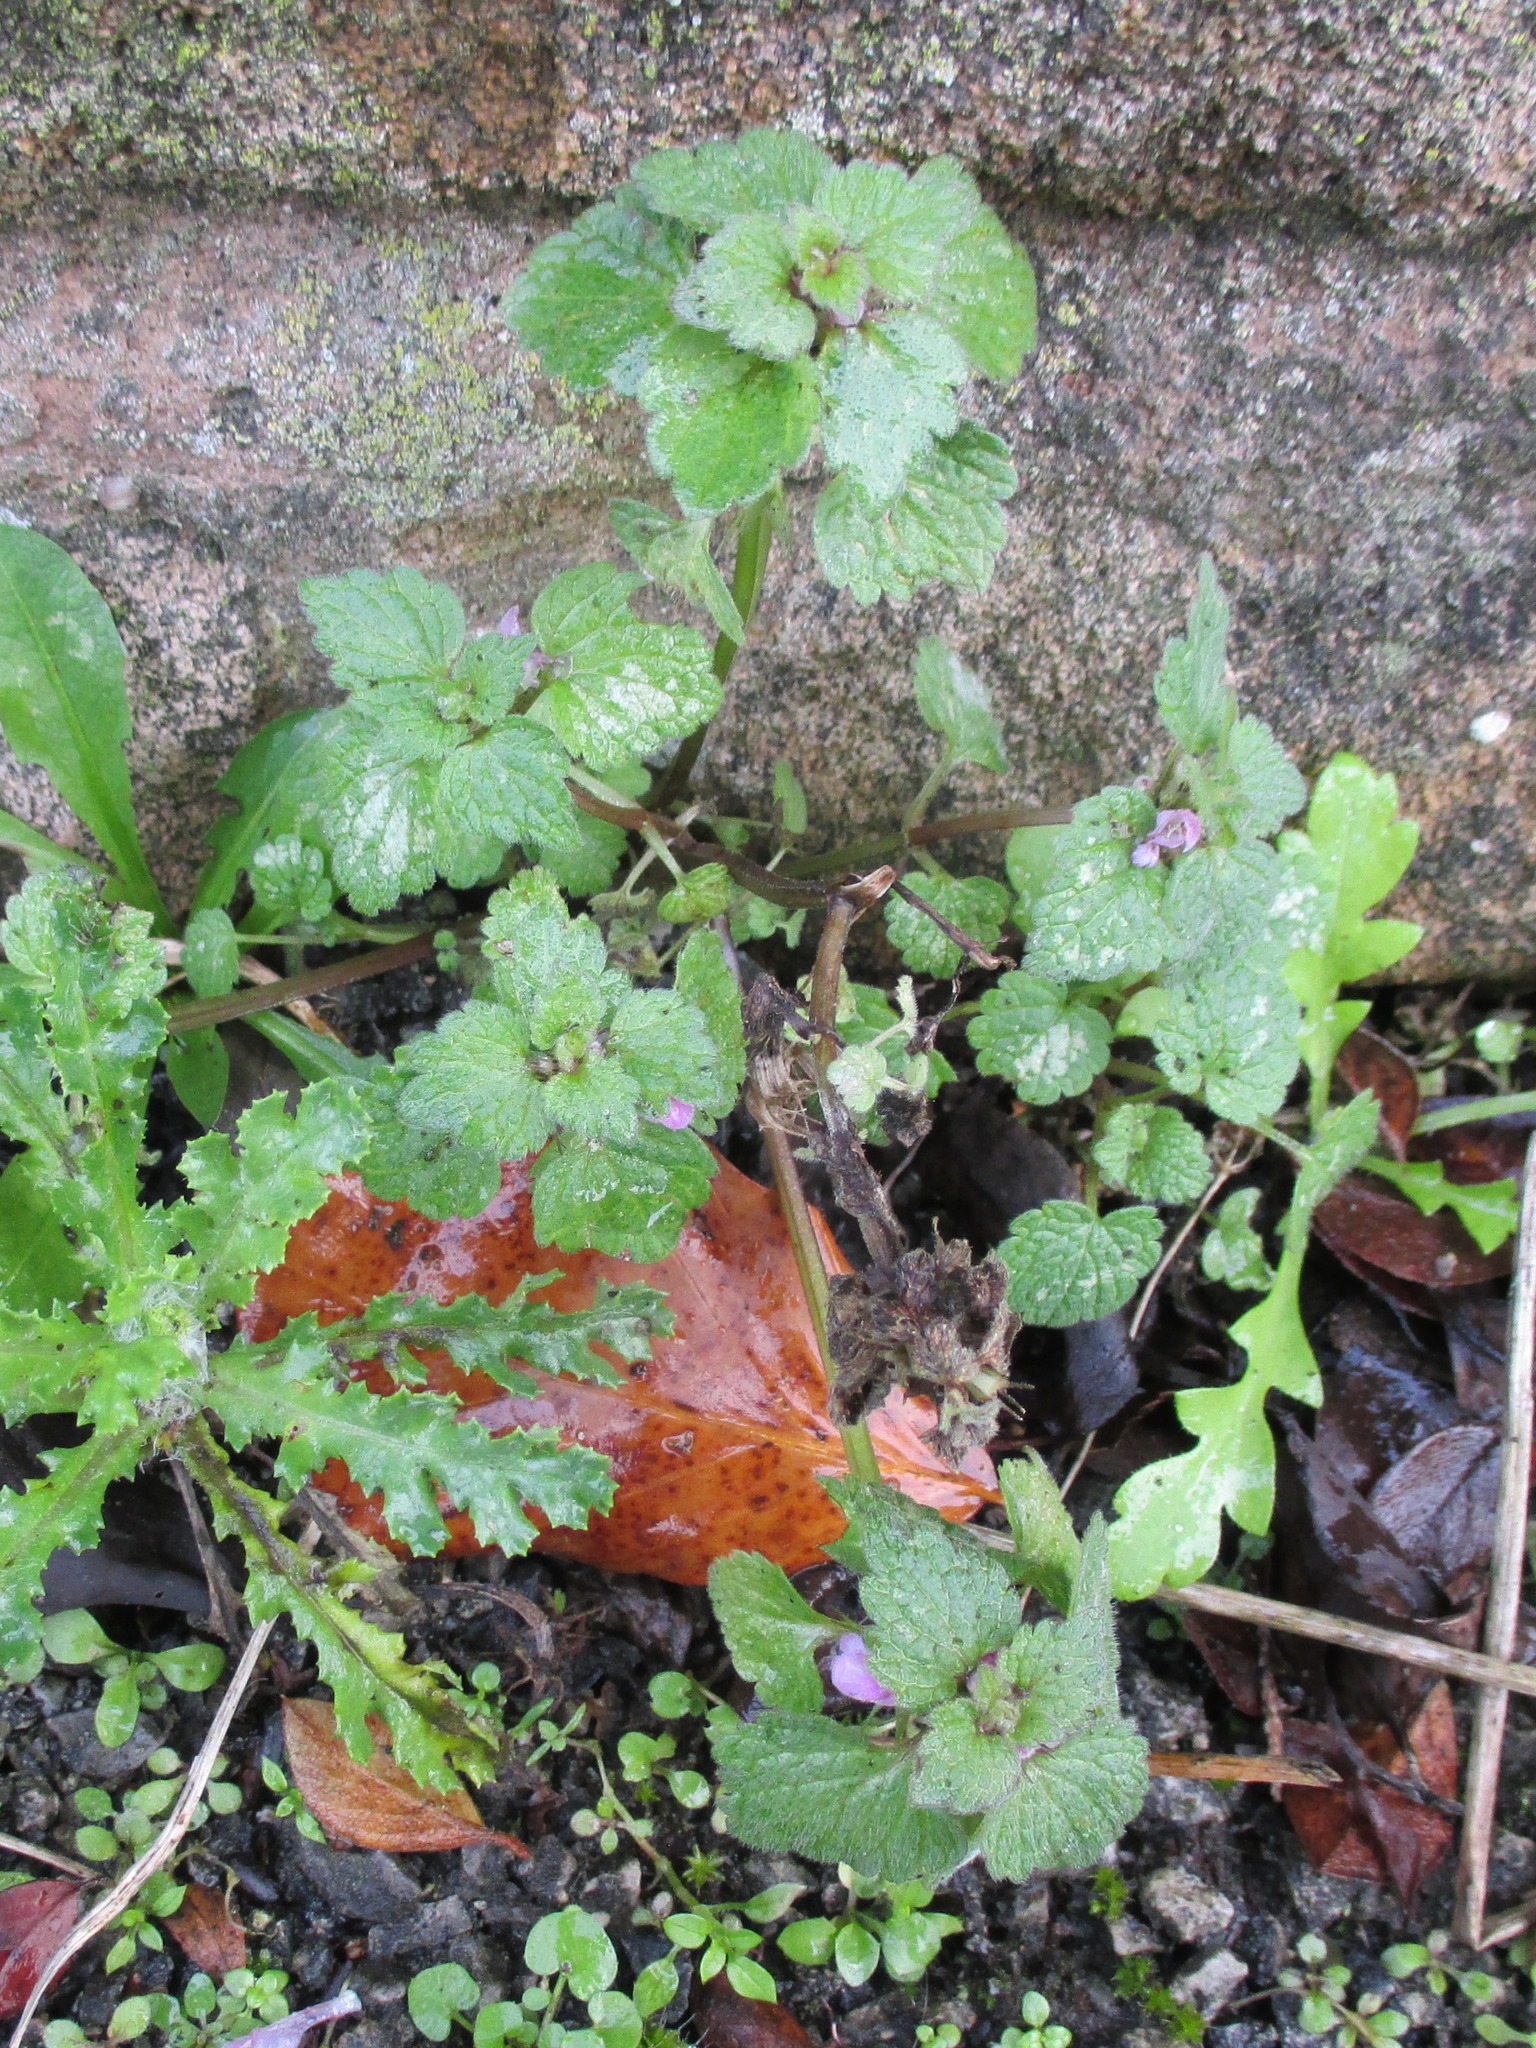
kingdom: Plantae
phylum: Tracheophyta
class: Magnoliopsida
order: Lamiales
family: Lamiaceae
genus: Lamium
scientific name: Lamium purpureum
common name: Red dead-nettle
